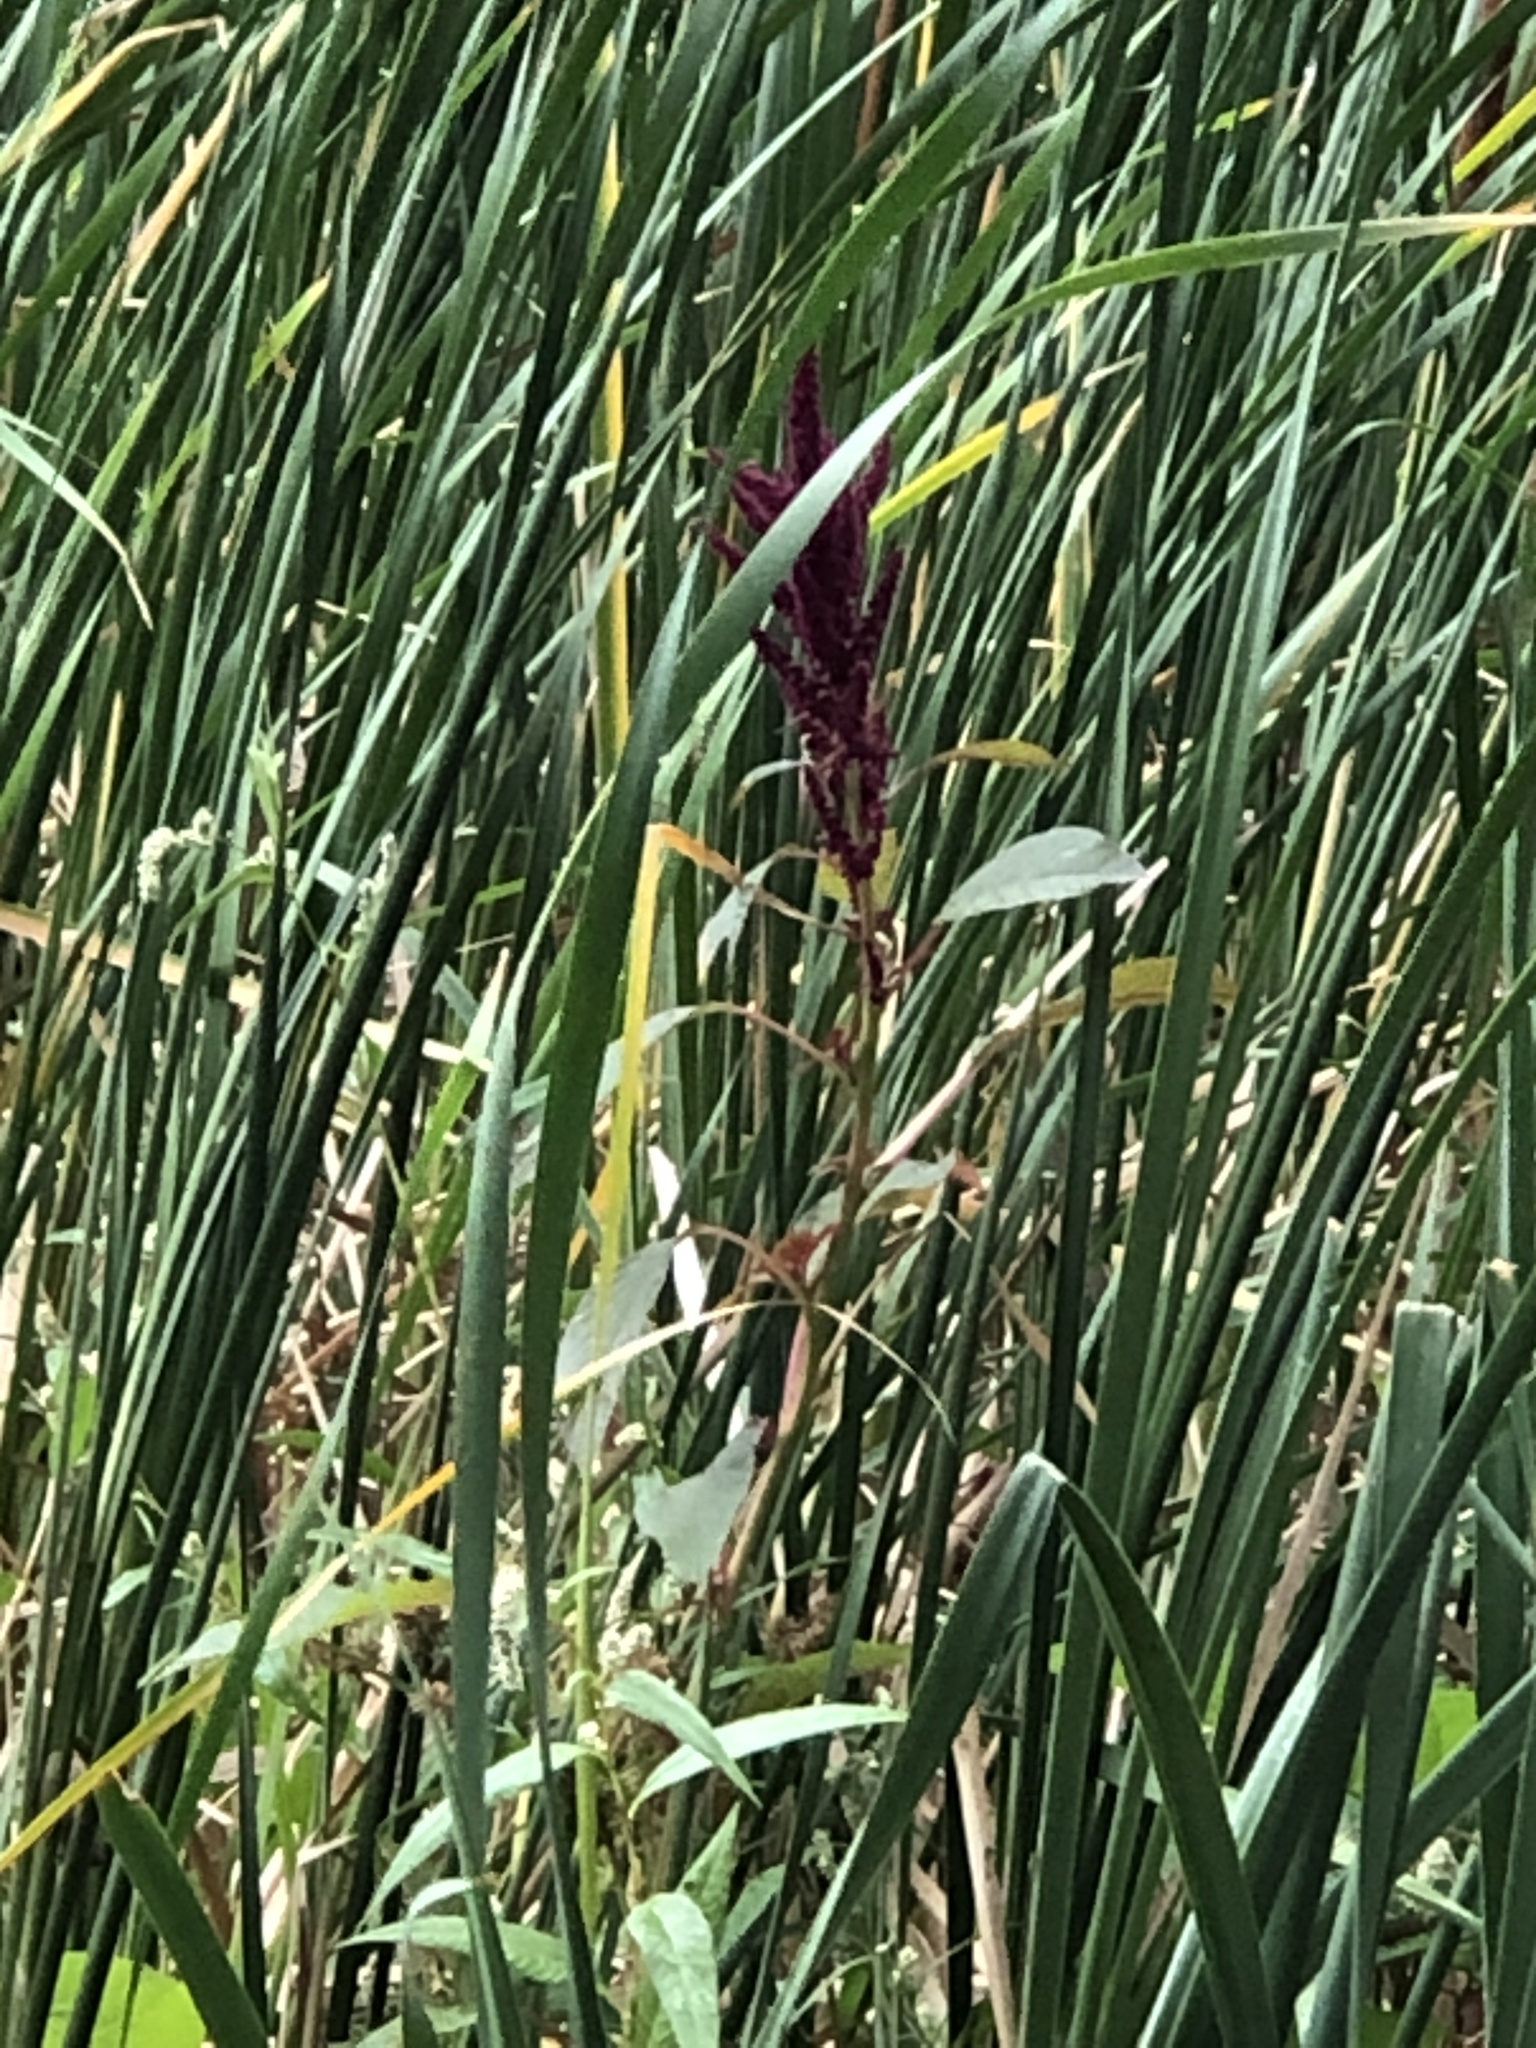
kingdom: Plantae
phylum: Tracheophyta
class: Magnoliopsida
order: Caryophyllales
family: Amaranthaceae
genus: Amaranthus
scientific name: Amaranthus cruentus
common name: Purple amaranth
